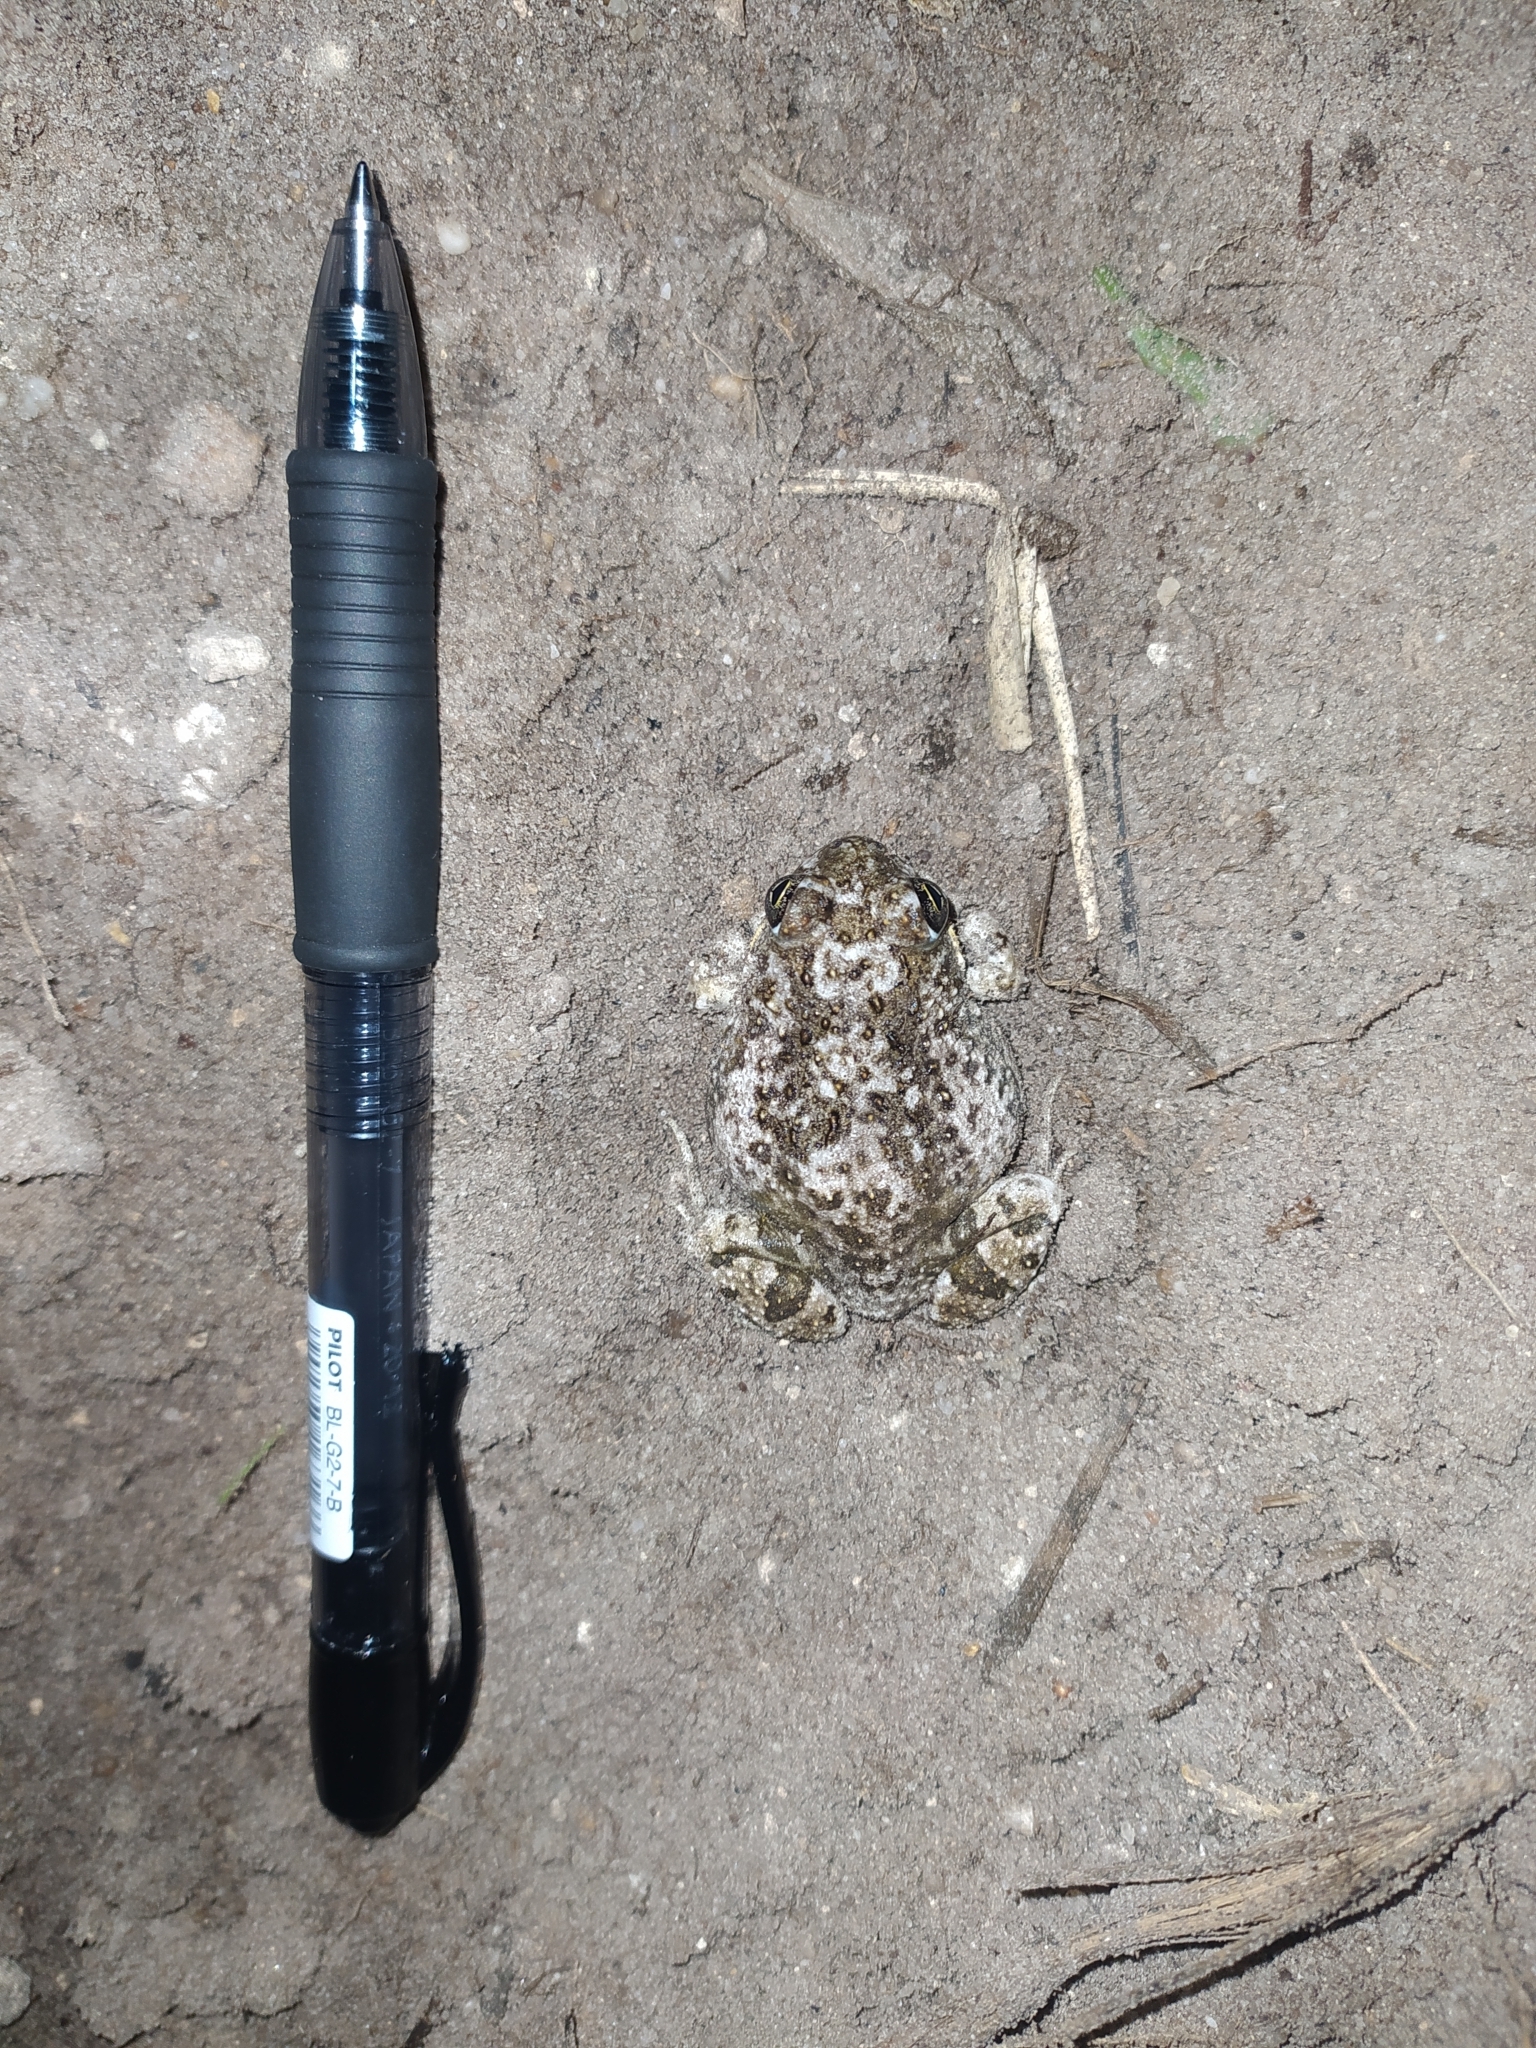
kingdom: Animalia
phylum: Chordata
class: Amphibia
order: Anura
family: Pyxicephalidae
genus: Tomopterna
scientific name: Tomopterna delalandii
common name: Delalande's burrowing bullfrog
